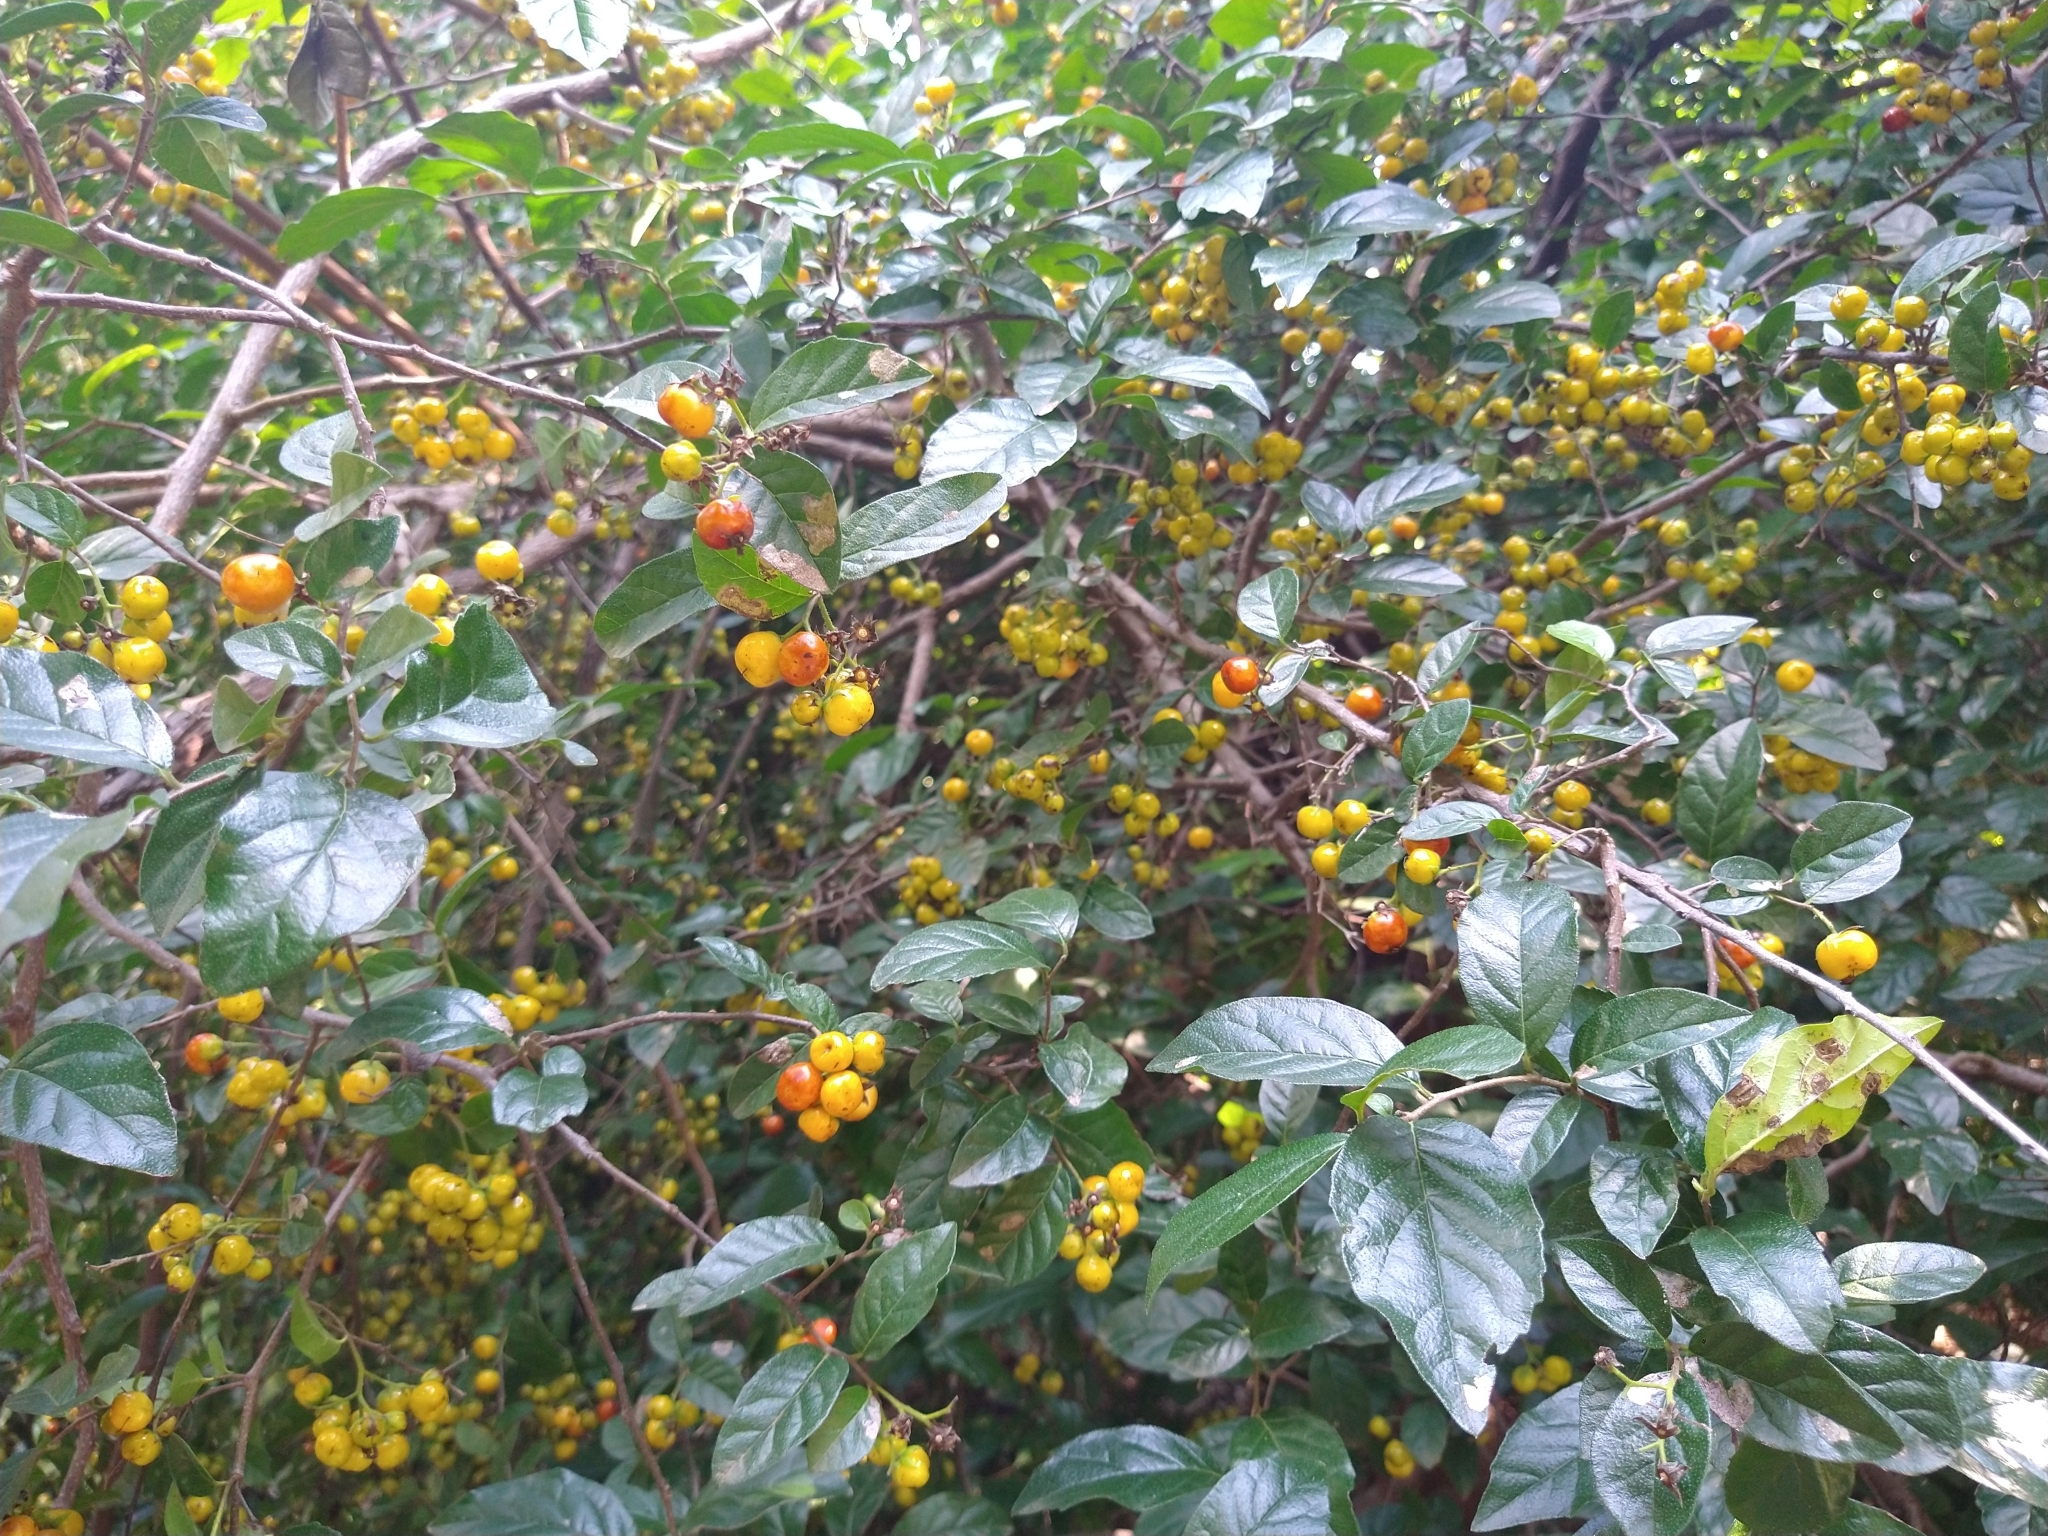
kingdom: Plantae
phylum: Tracheophyta
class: Magnoliopsida
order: Boraginales
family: Ehretiaceae
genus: Ehretia
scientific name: Ehretia anacua
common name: Sugarberry
